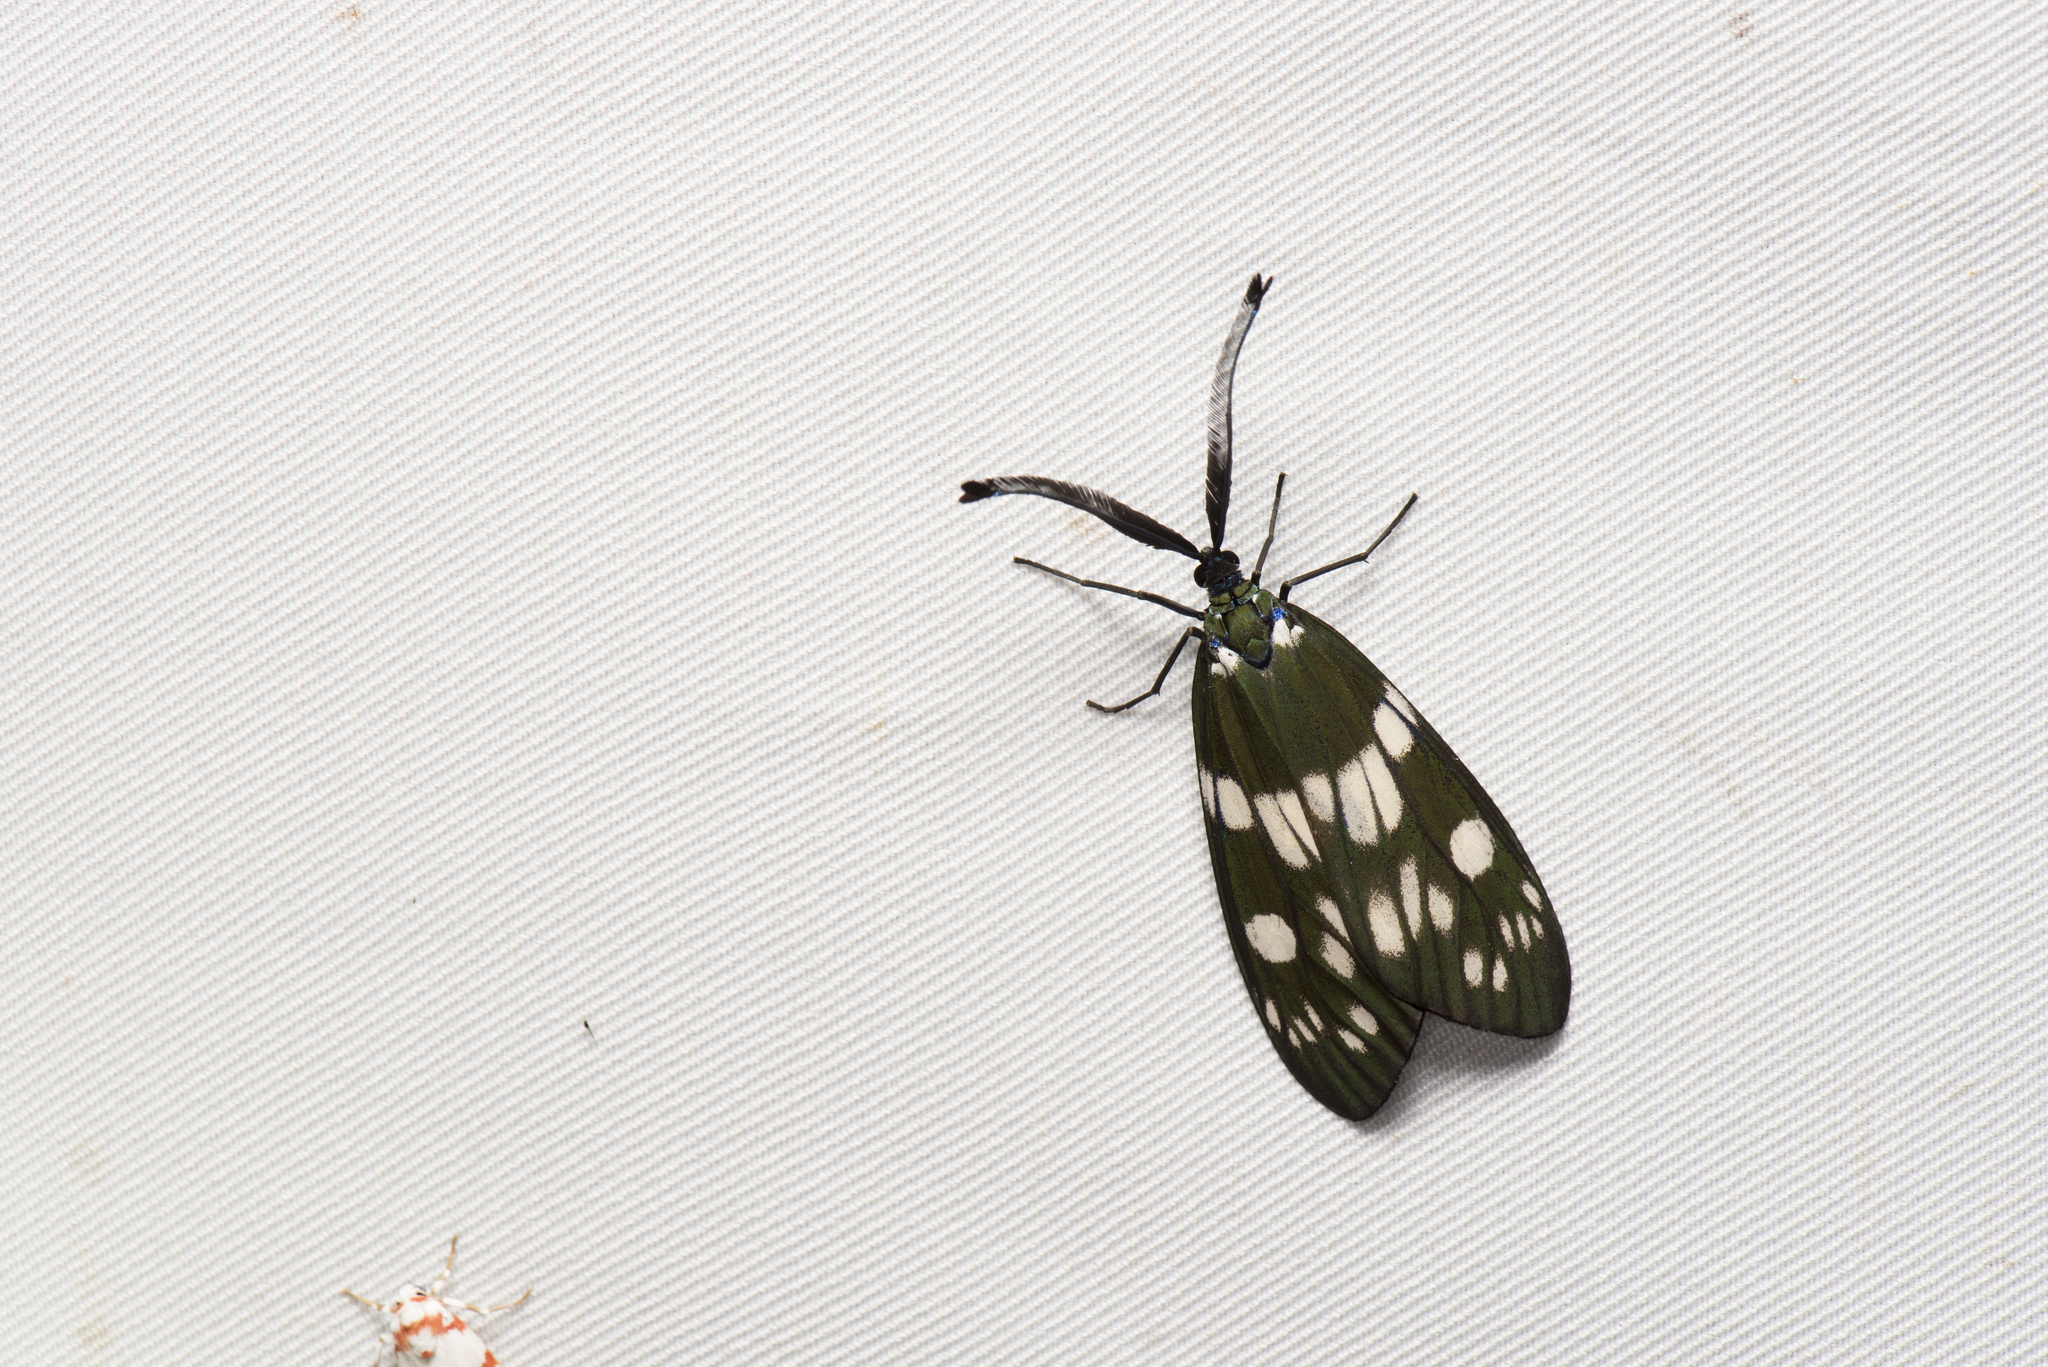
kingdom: Animalia
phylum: Arthropoda
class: Insecta
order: Lepidoptera
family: Zygaenidae
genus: Eterusia
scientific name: Eterusia aedea
